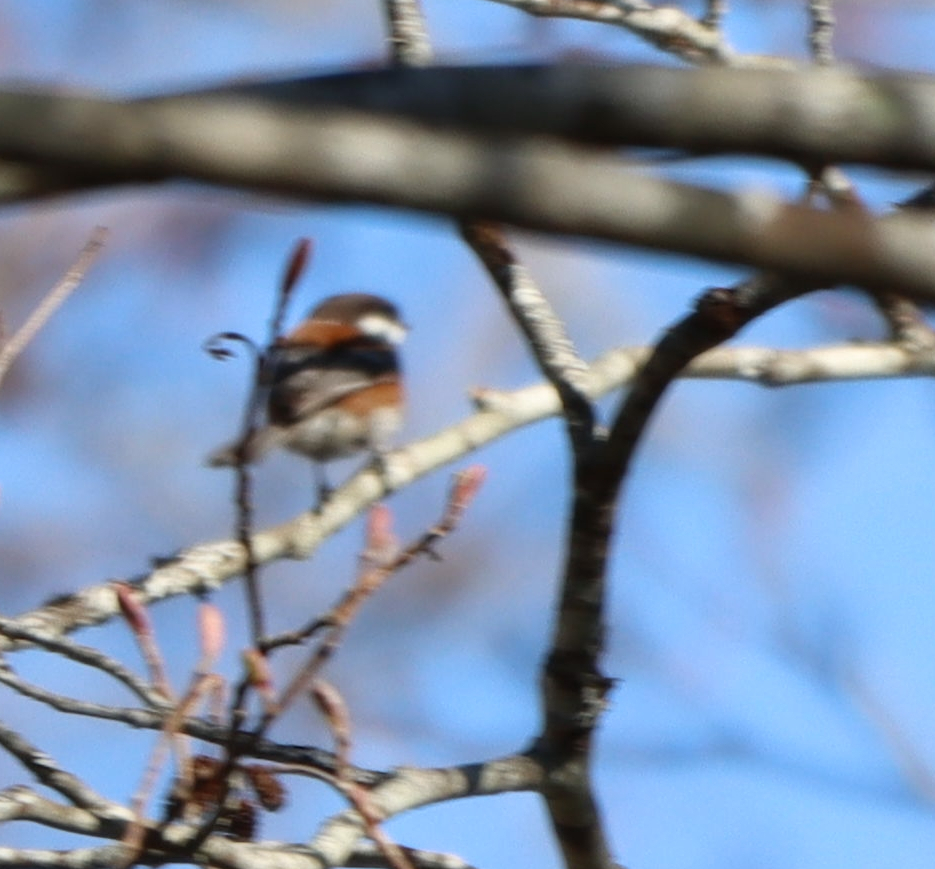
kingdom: Animalia
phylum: Chordata
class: Aves
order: Passeriformes
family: Paridae
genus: Poecile
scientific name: Poecile rufescens
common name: Chestnut-backed chickadee
